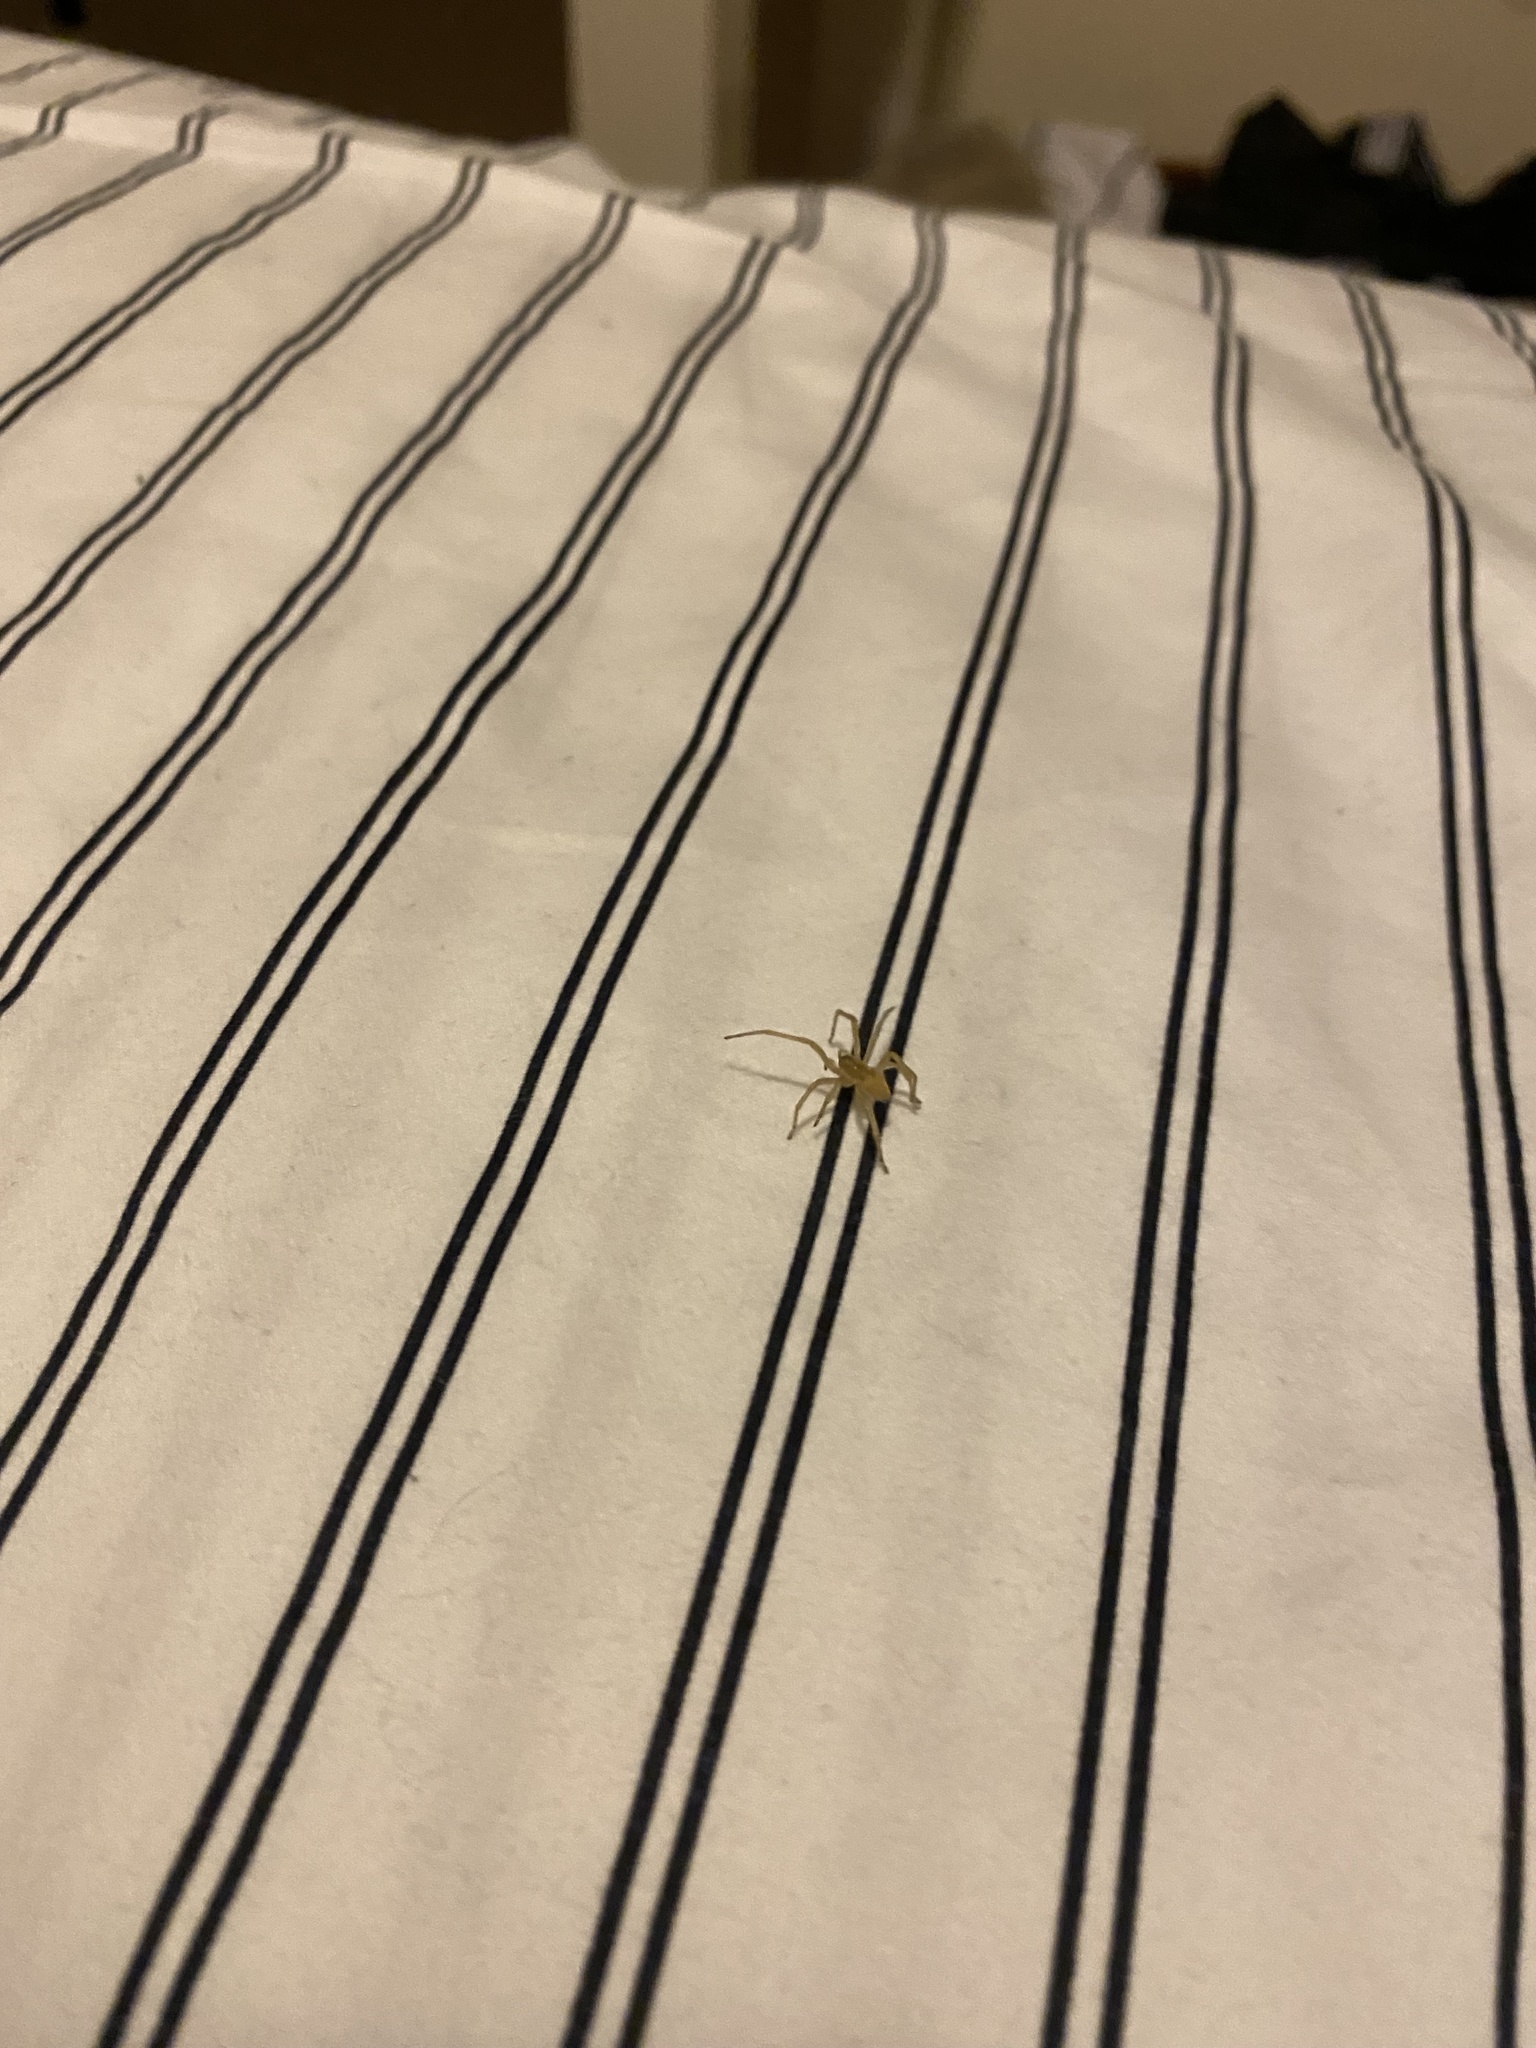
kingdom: Animalia
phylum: Arthropoda
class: Arachnida
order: Araneae
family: Cheiracanthiidae
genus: Cheiracanthium
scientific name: Cheiracanthium mildei
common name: Northern yellow sac spider
